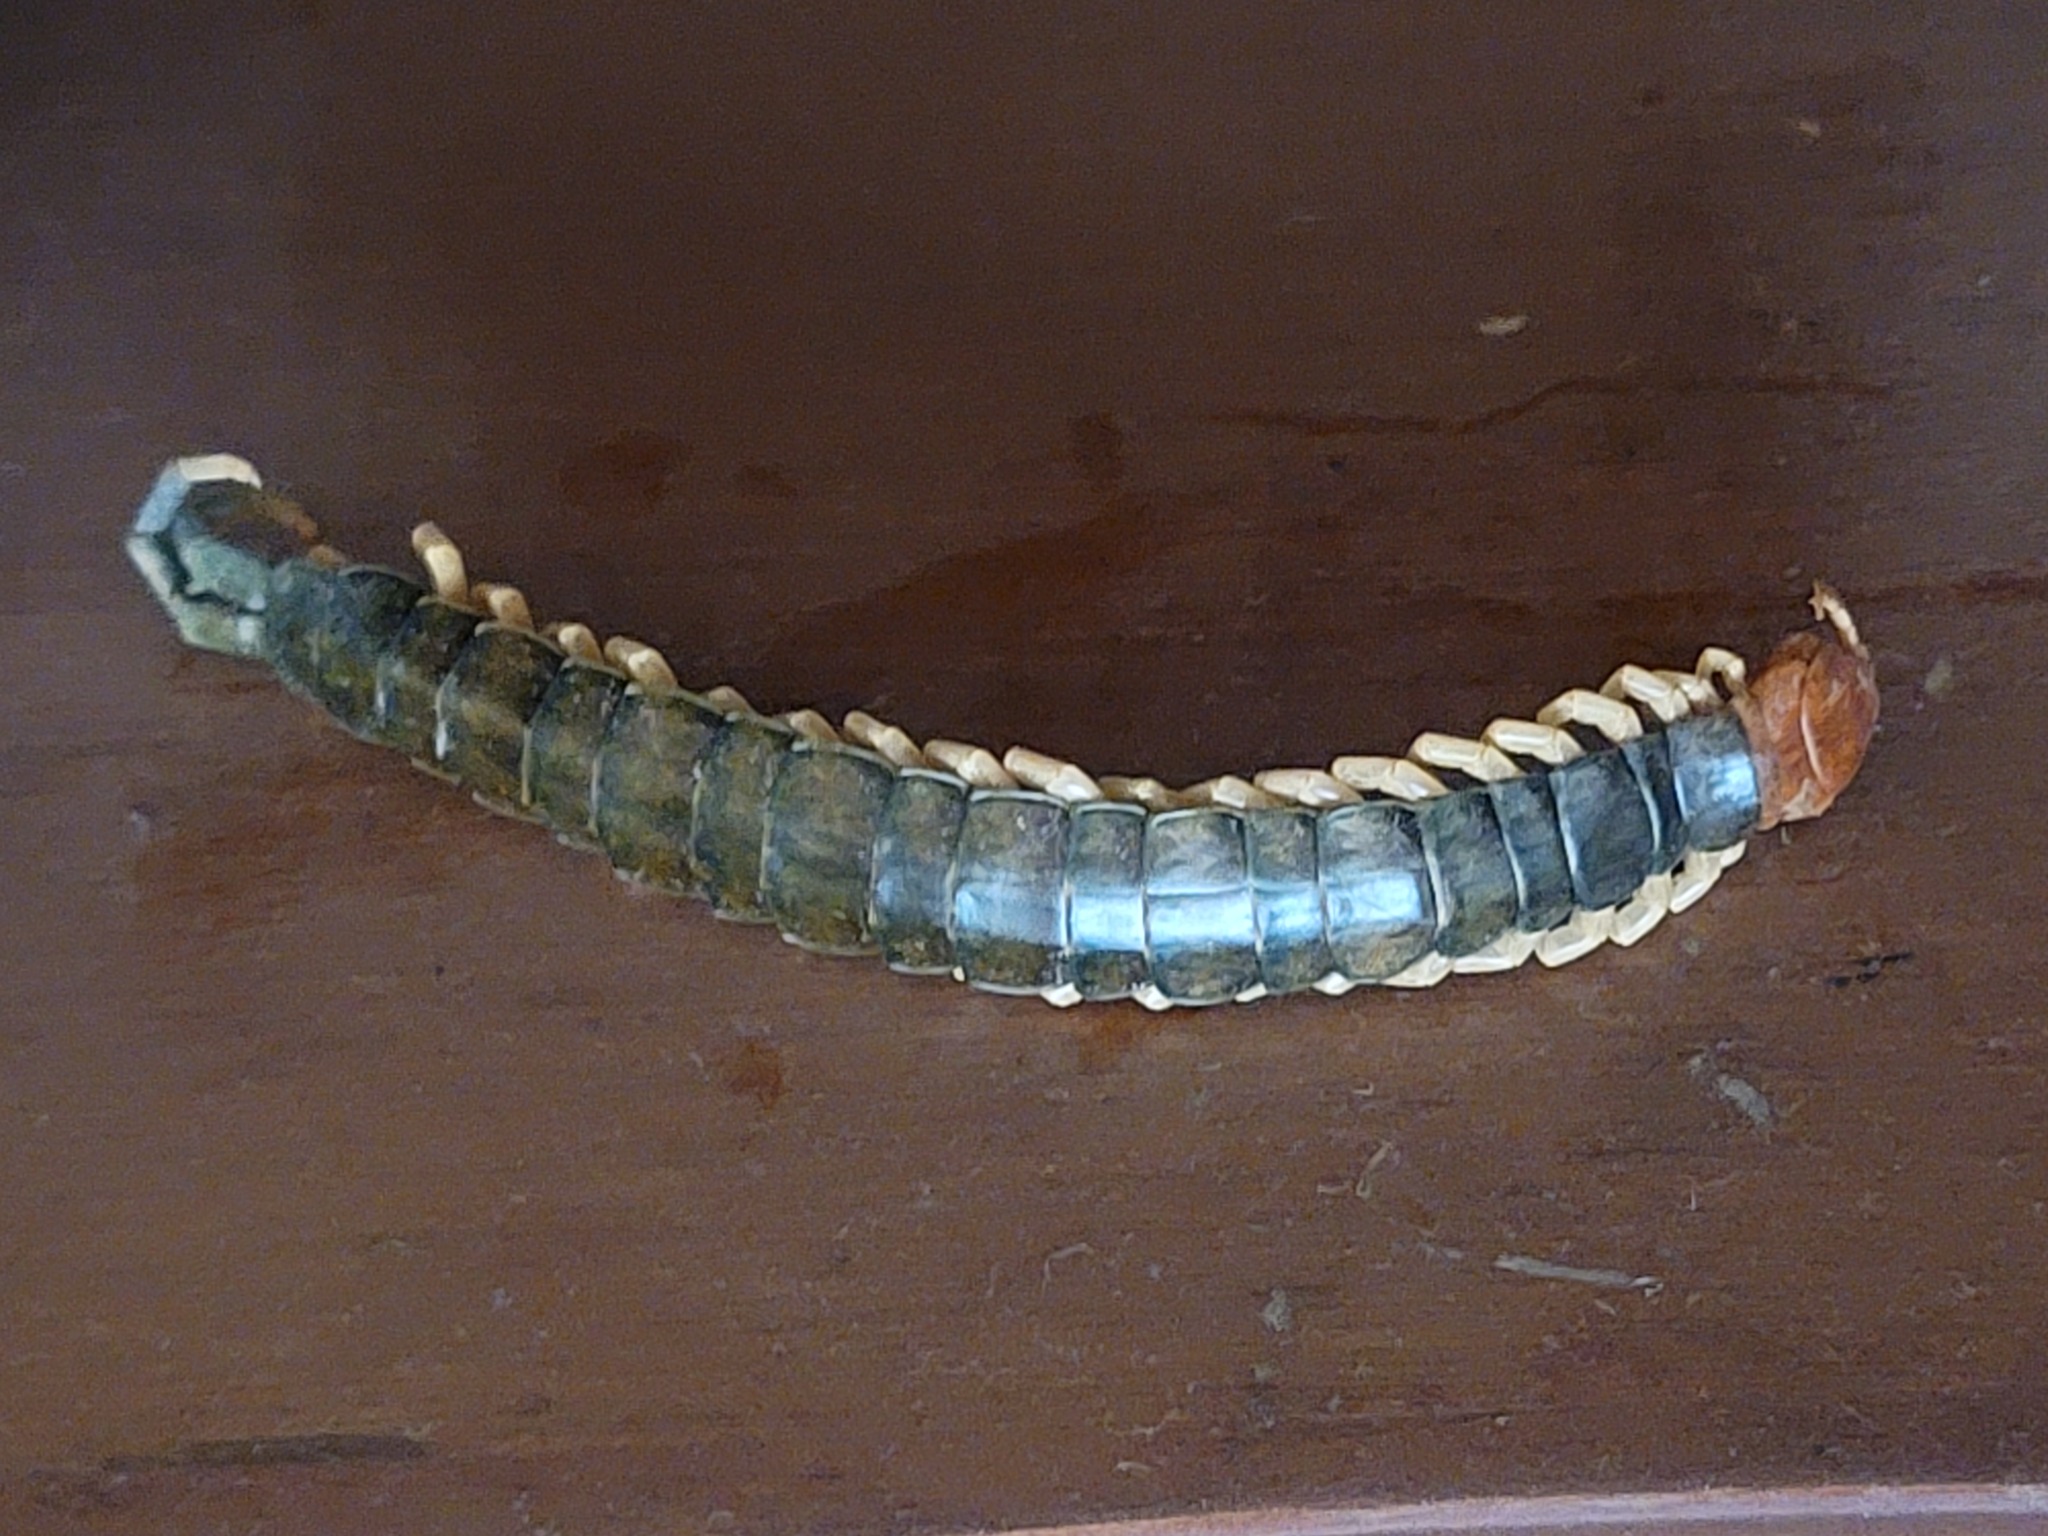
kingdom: Animalia
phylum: Arthropoda
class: Chilopoda
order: Scolopendromorpha
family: Scolopendridae
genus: Scolopendra
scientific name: Scolopendra heros
